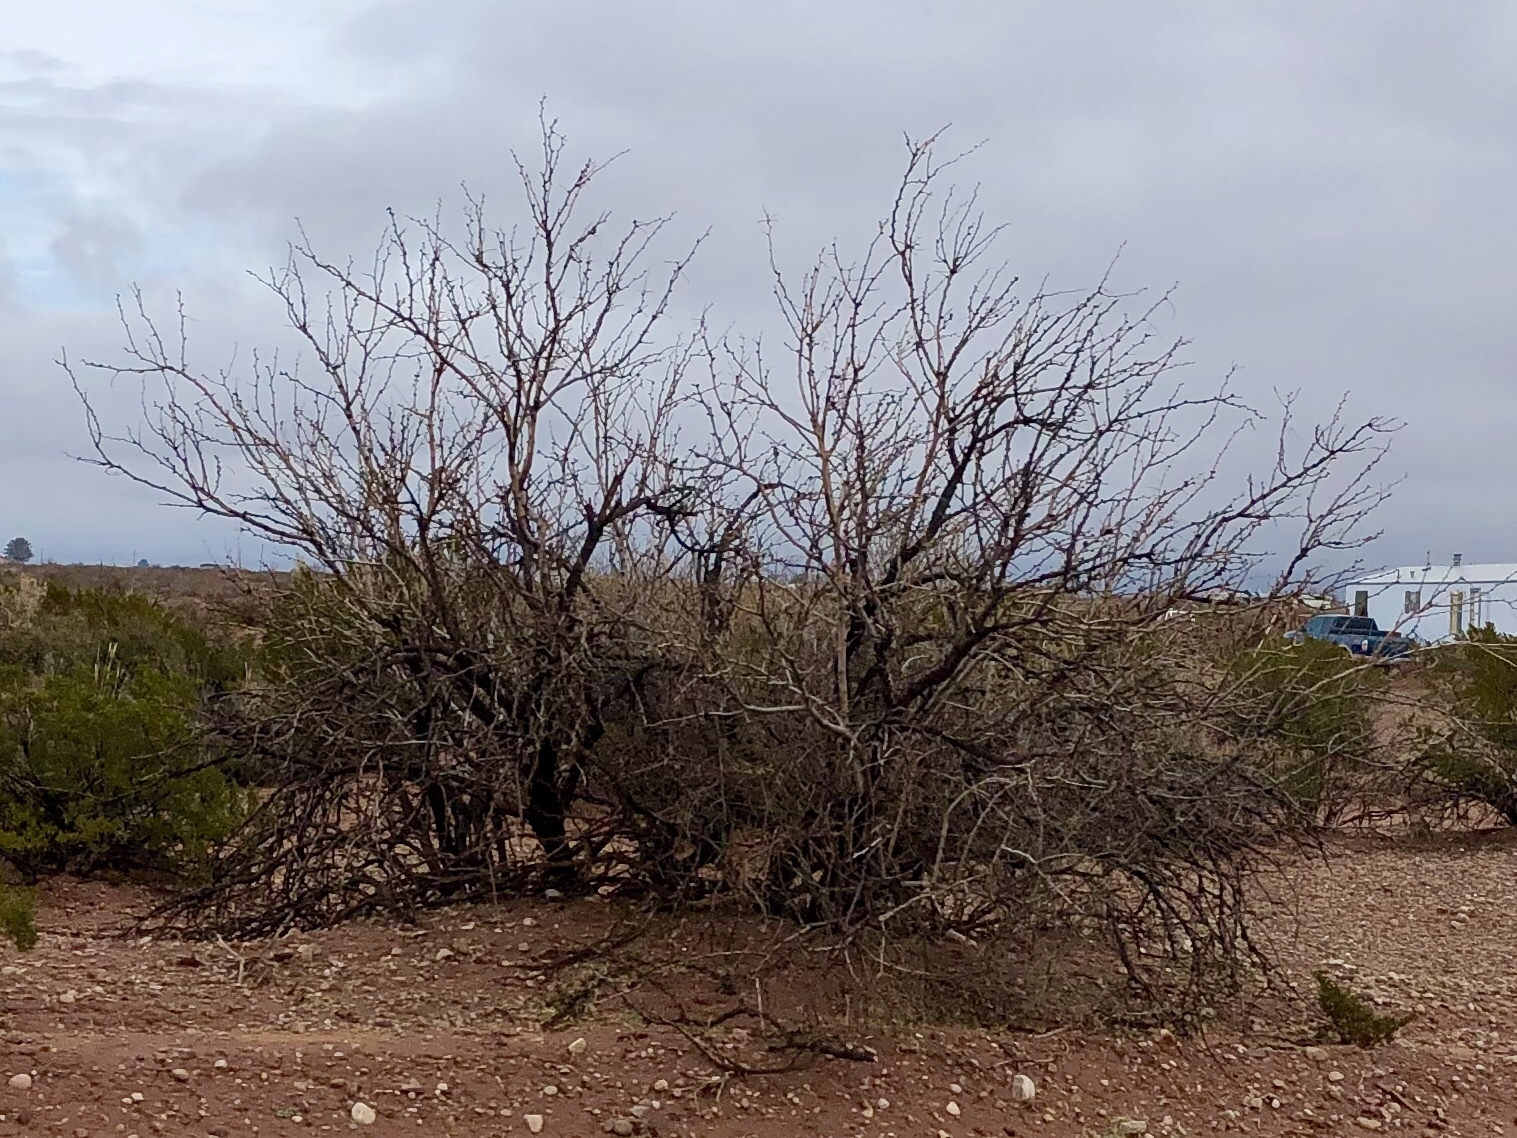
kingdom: Plantae
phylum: Tracheophyta
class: Magnoliopsida
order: Fabales
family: Fabaceae
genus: Prosopis
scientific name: Prosopis glandulosa
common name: Honey mesquite
